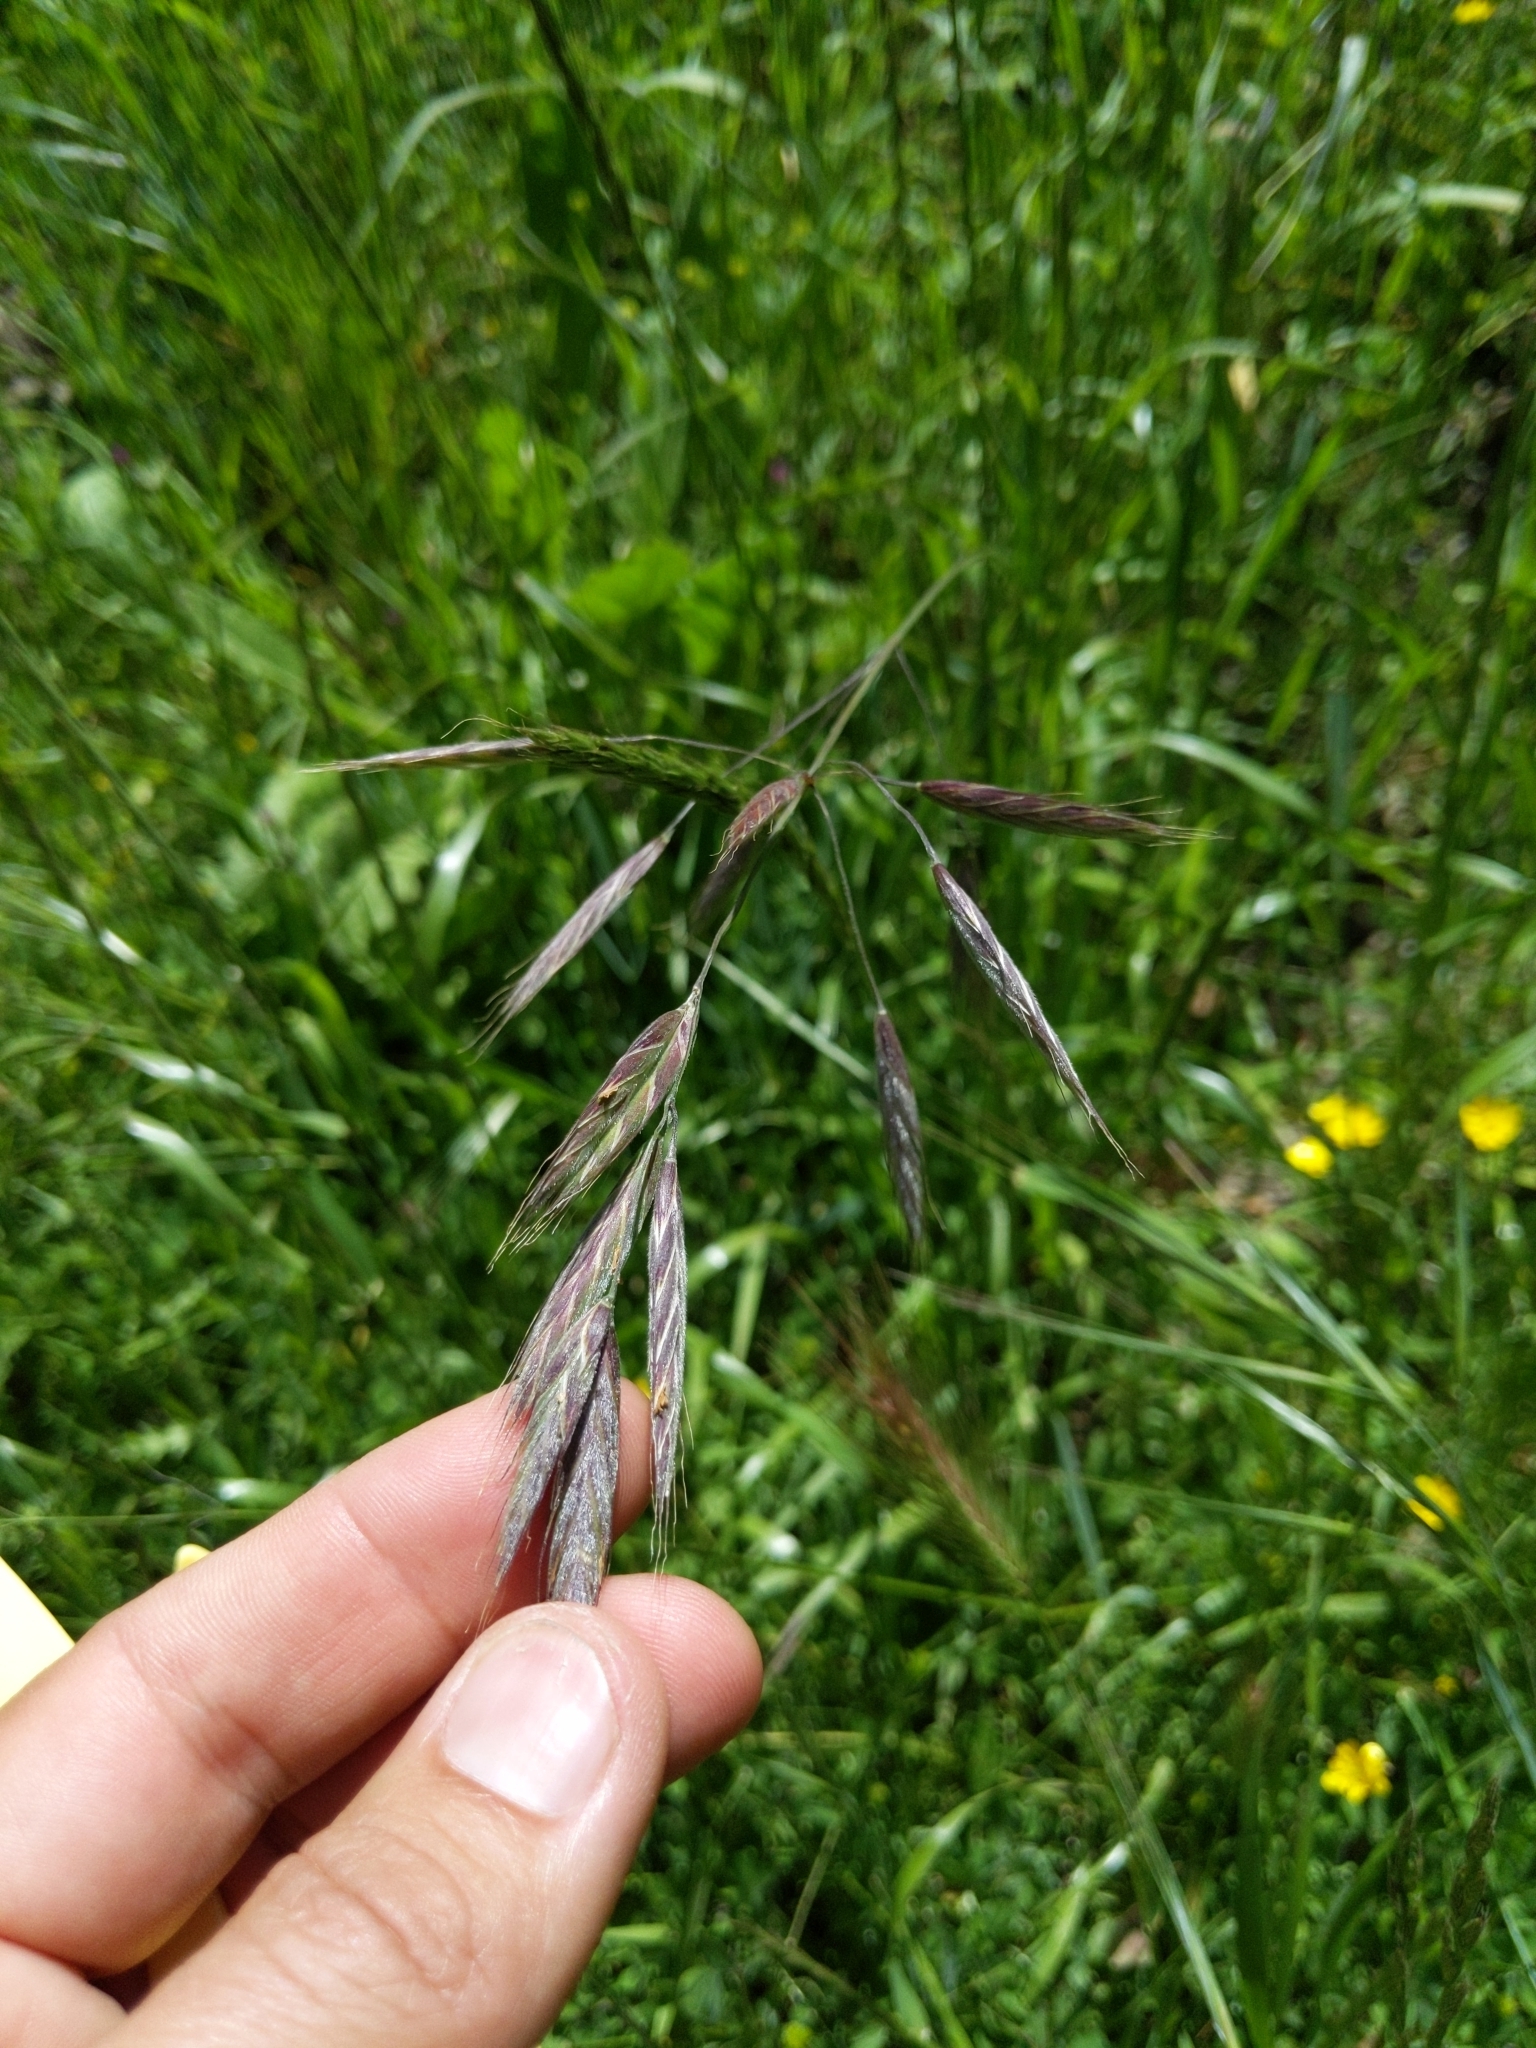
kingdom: Plantae
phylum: Tracheophyta
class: Liliopsida
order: Poales
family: Poaceae
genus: Bromus
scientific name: Bromus carinatus
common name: Mountain brome
